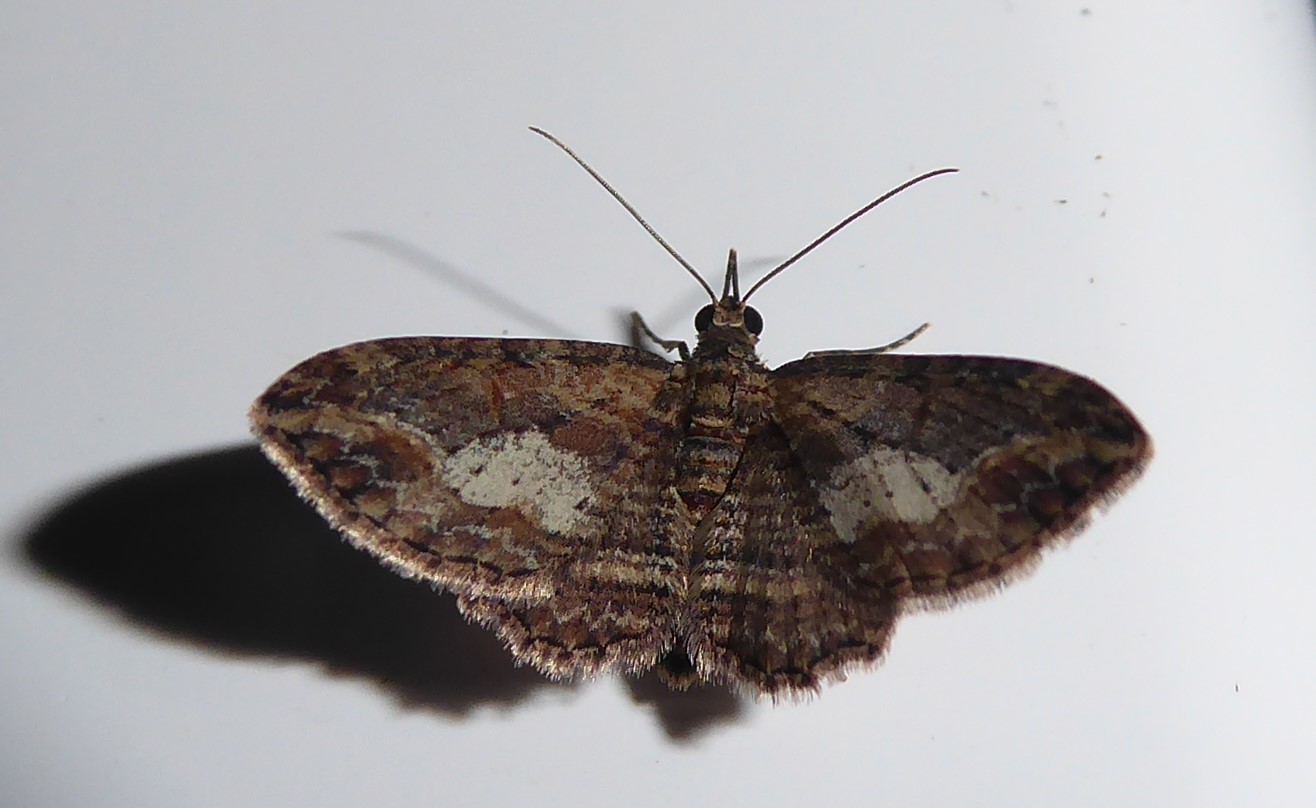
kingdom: Animalia
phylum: Arthropoda
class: Insecta
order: Lepidoptera
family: Geometridae
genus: Chloroclystis
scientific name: Chloroclystis filata
